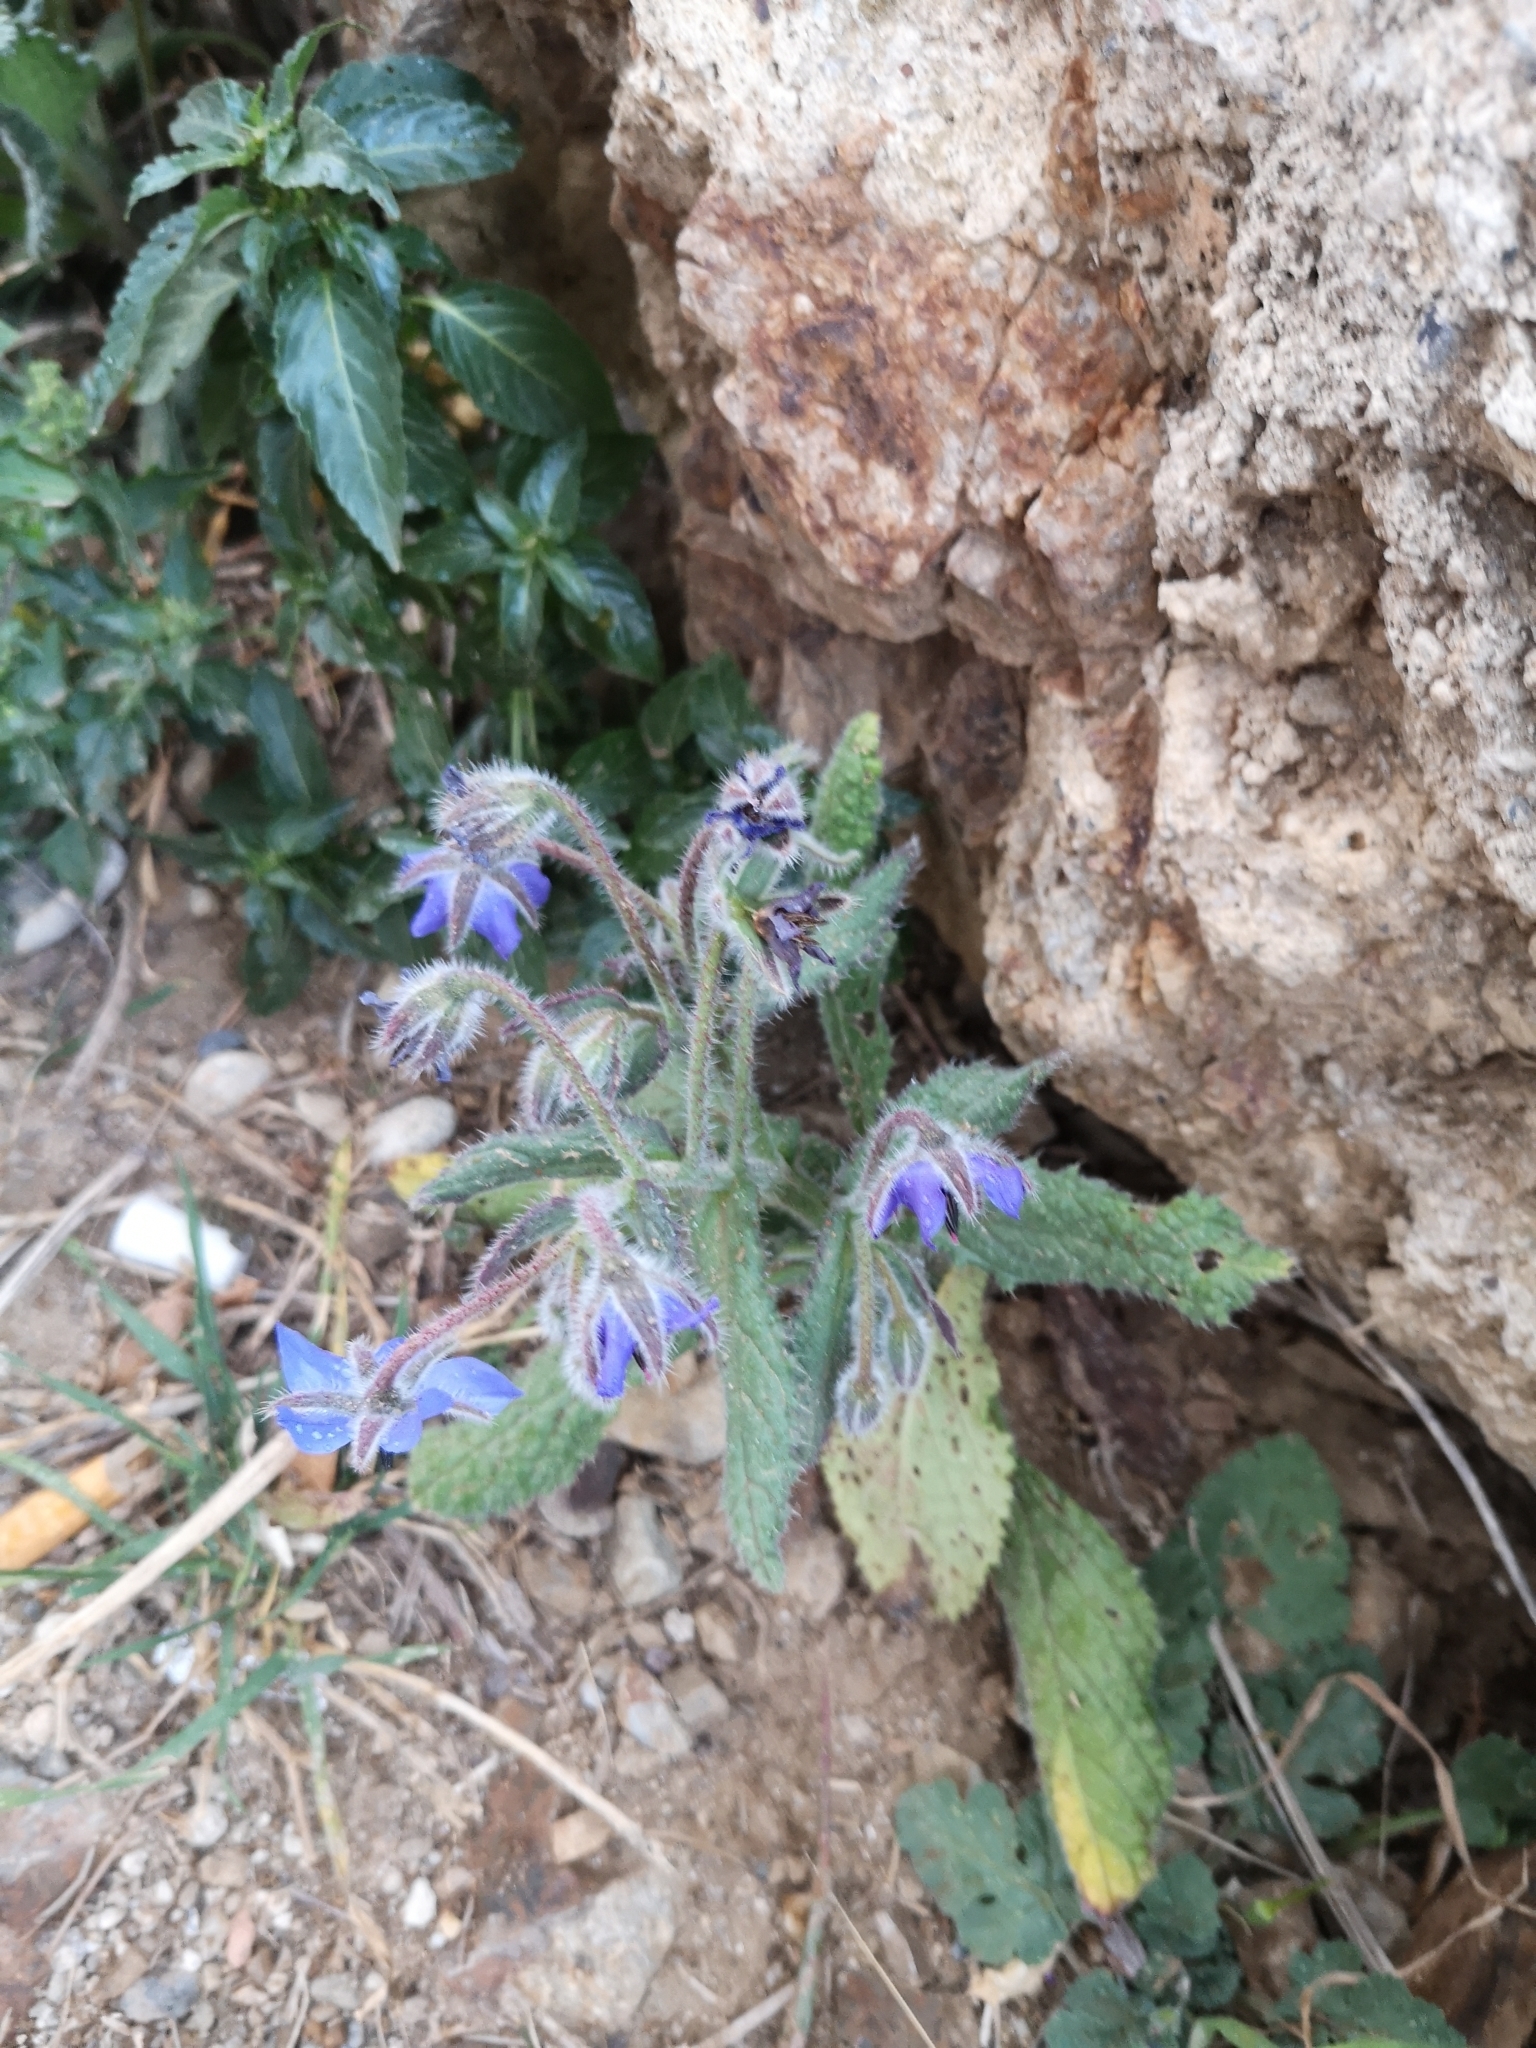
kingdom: Plantae
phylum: Tracheophyta
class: Magnoliopsida
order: Boraginales
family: Boraginaceae
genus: Borago
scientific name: Borago officinalis
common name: Borage
